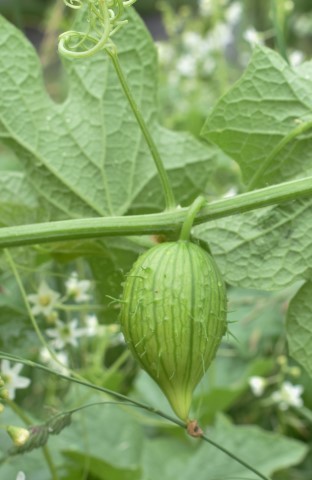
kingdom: Plantae
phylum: Tracheophyta
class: Magnoliopsida
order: Cucurbitales
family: Cucurbitaceae
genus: Marah
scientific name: Marah oregana
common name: Coastal manroot
